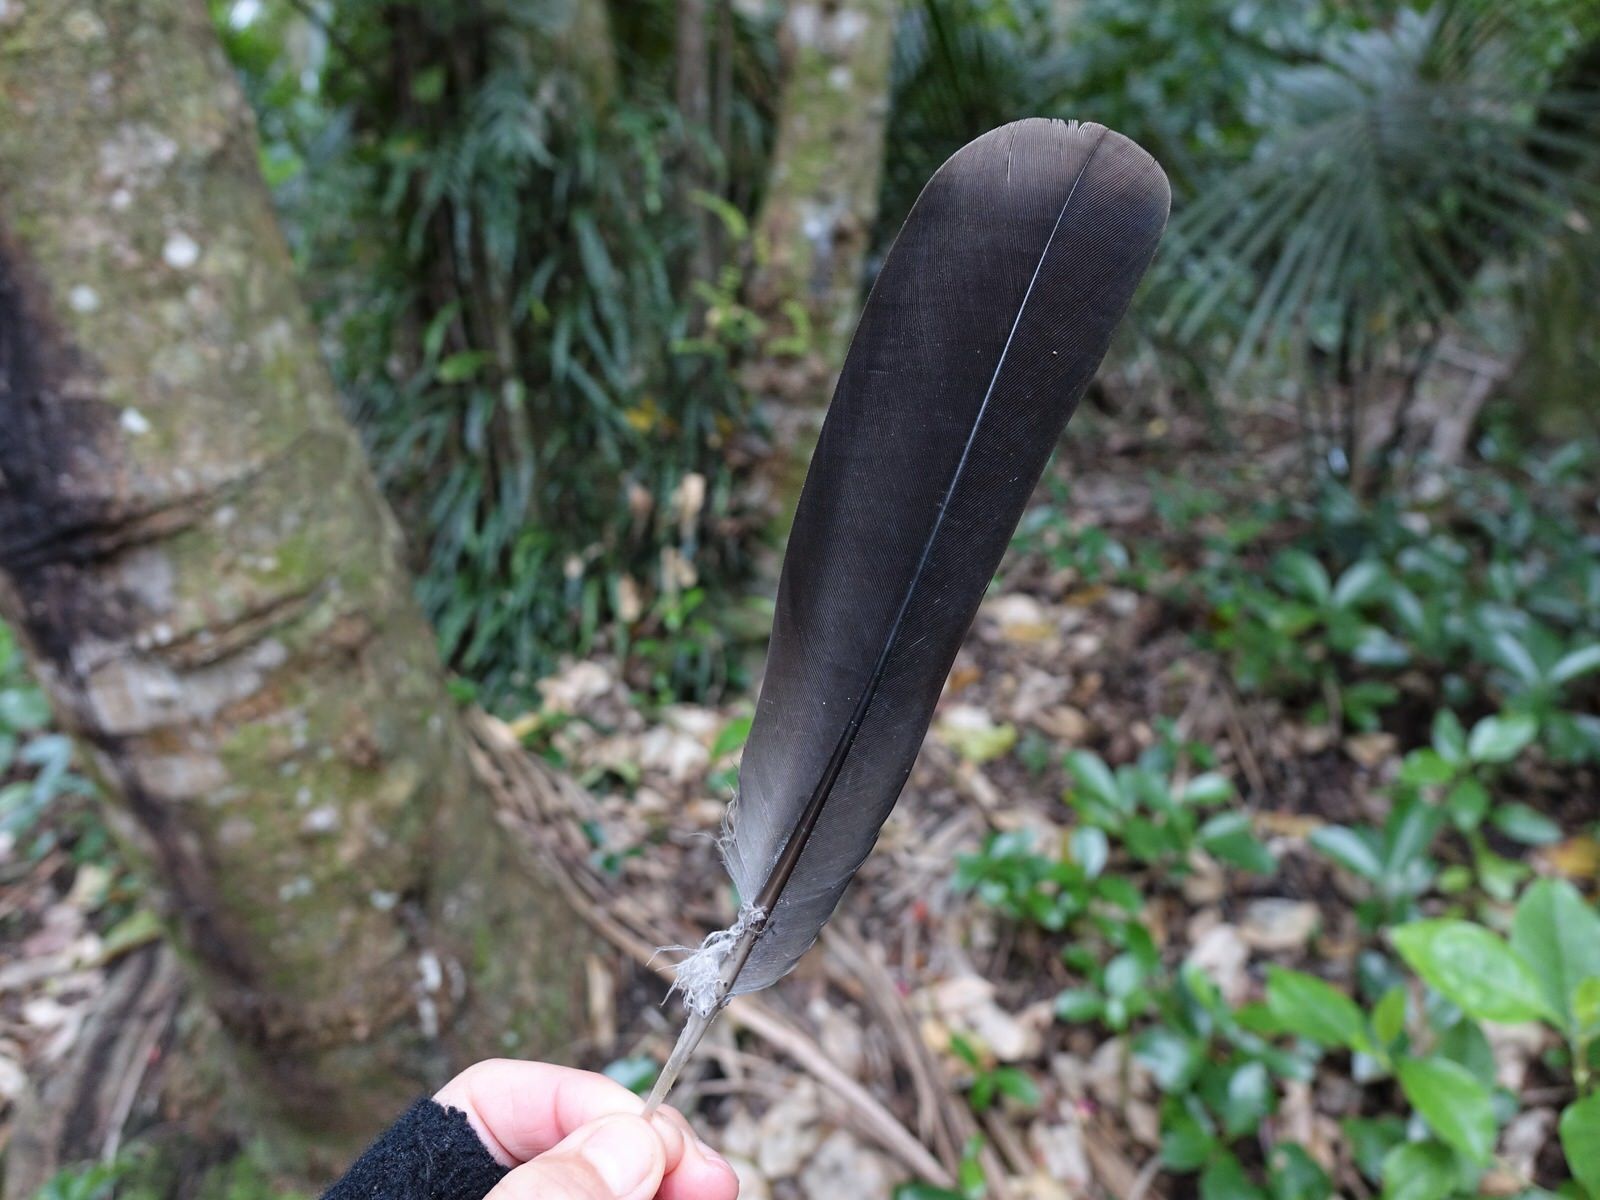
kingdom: Animalia
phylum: Chordata
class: Aves
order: Columbiformes
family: Columbidae
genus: Hemiphaga
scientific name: Hemiphaga novaeseelandiae
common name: New zealand pigeon
